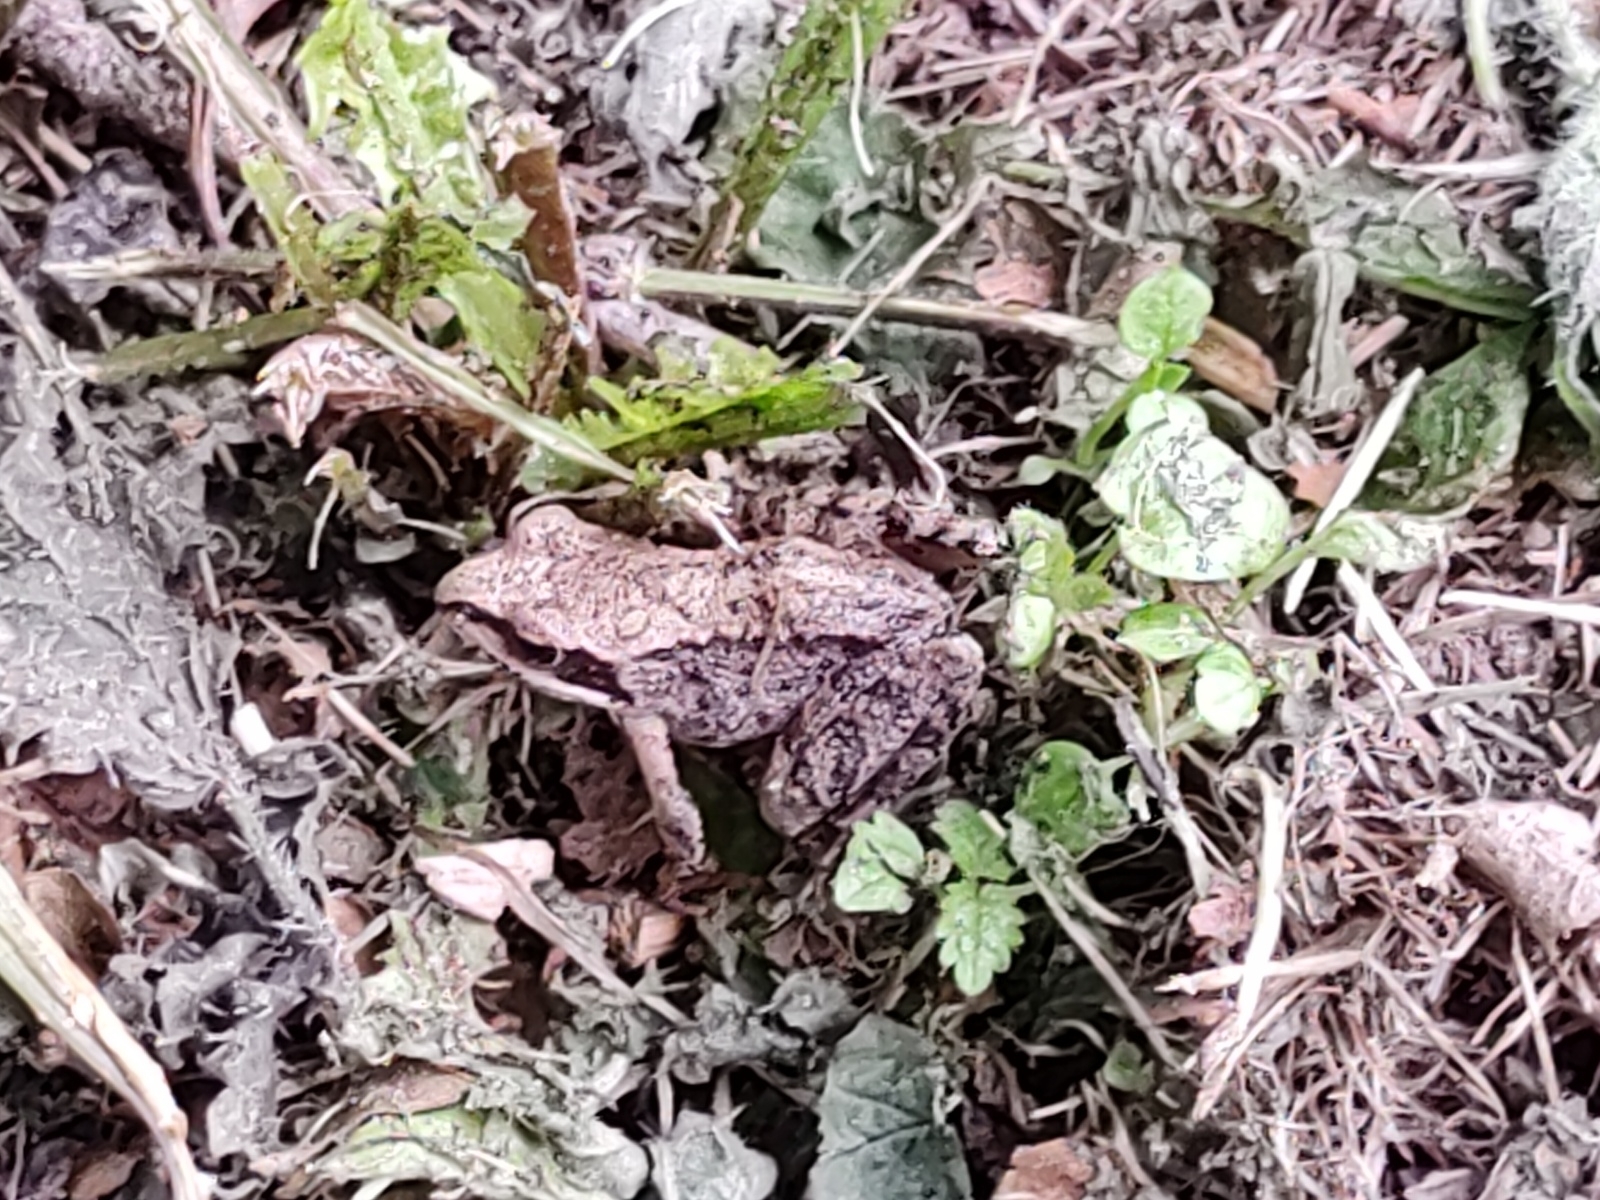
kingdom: Animalia
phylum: Chordata
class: Amphibia
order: Anura
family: Ranidae
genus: Rana
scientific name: Rana temporaria
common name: Common frog
